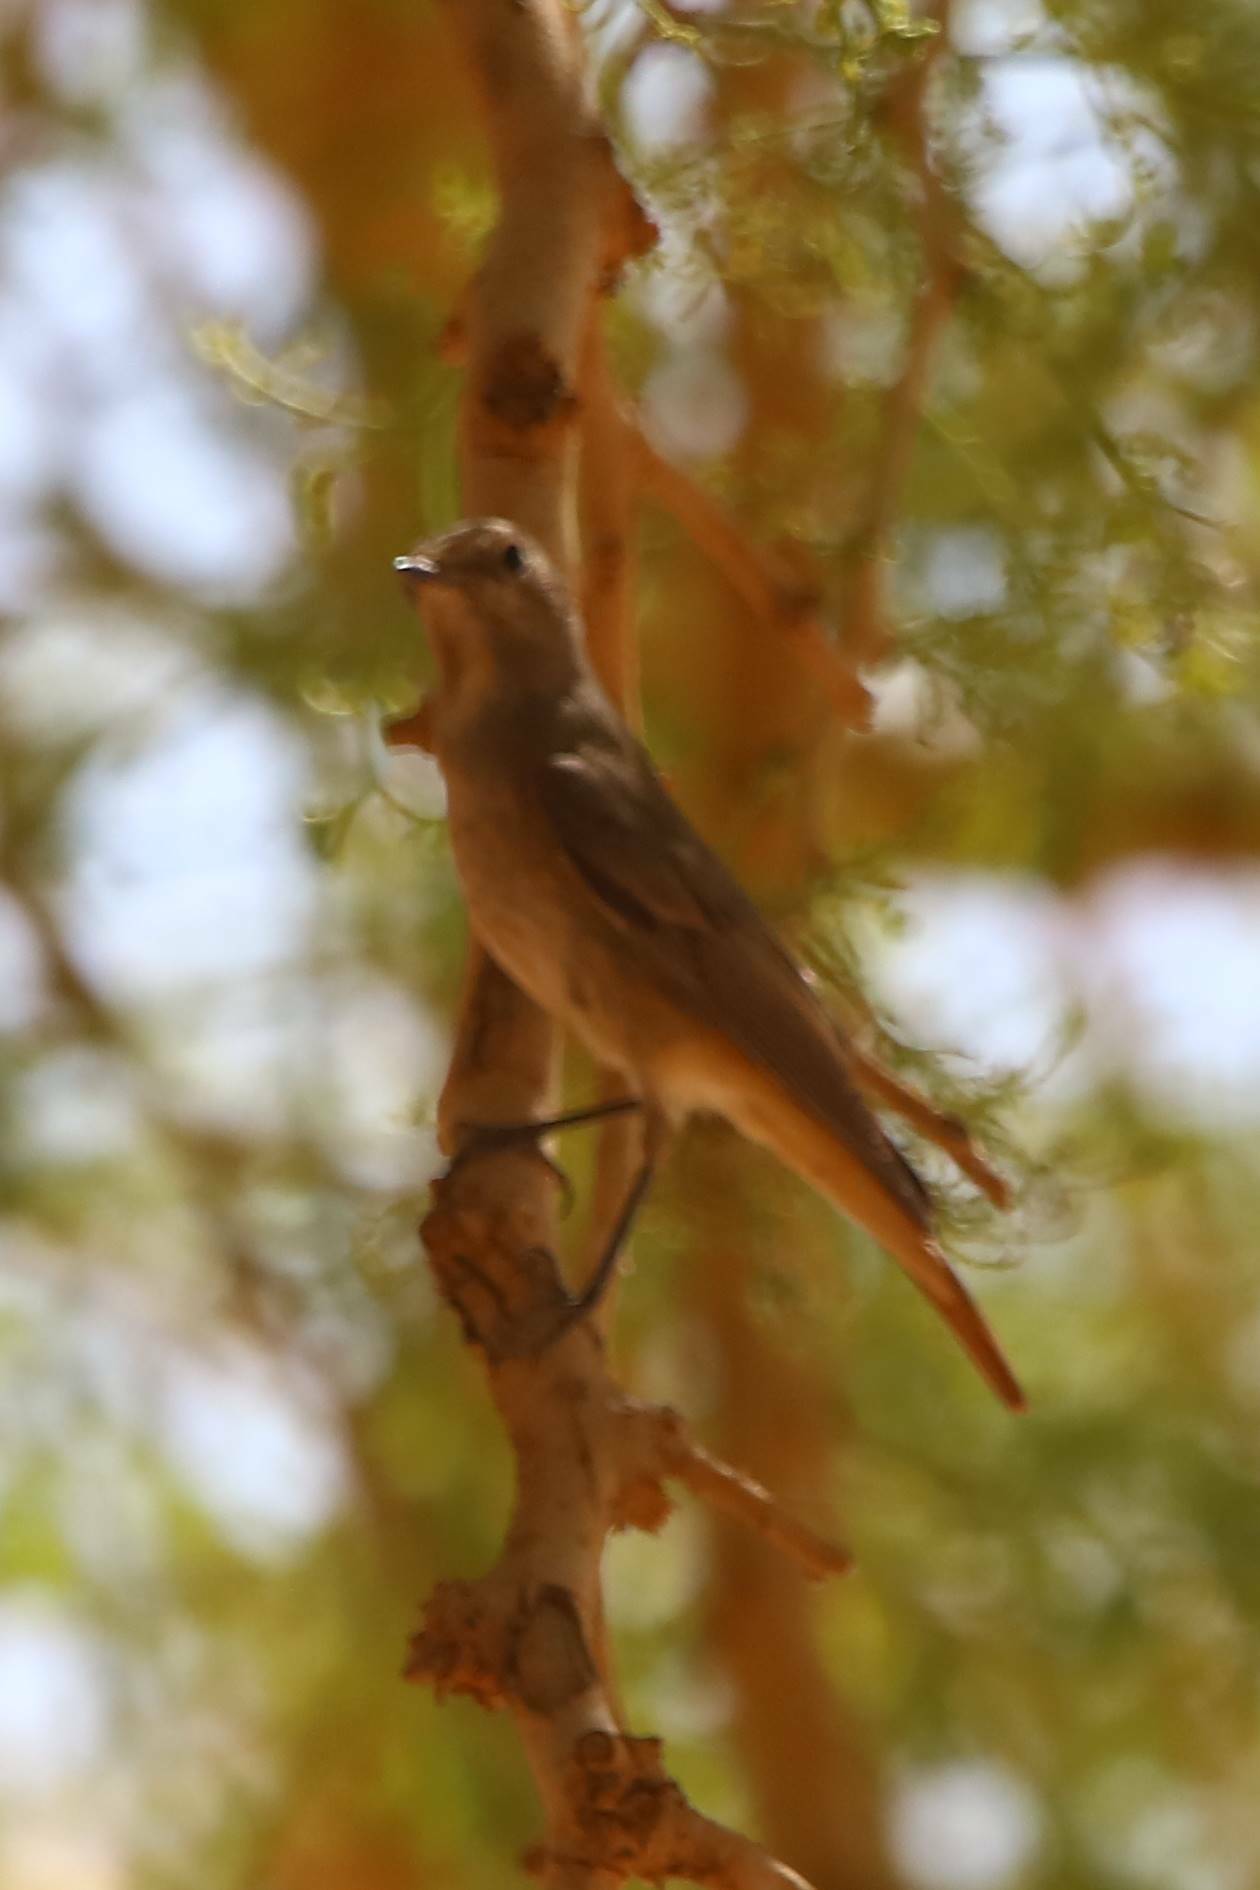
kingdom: Animalia
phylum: Chordata
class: Aves
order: Passeriformes
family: Muscicapidae
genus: Phoenicurus
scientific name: Phoenicurus phoenicurus
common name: Common redstart
